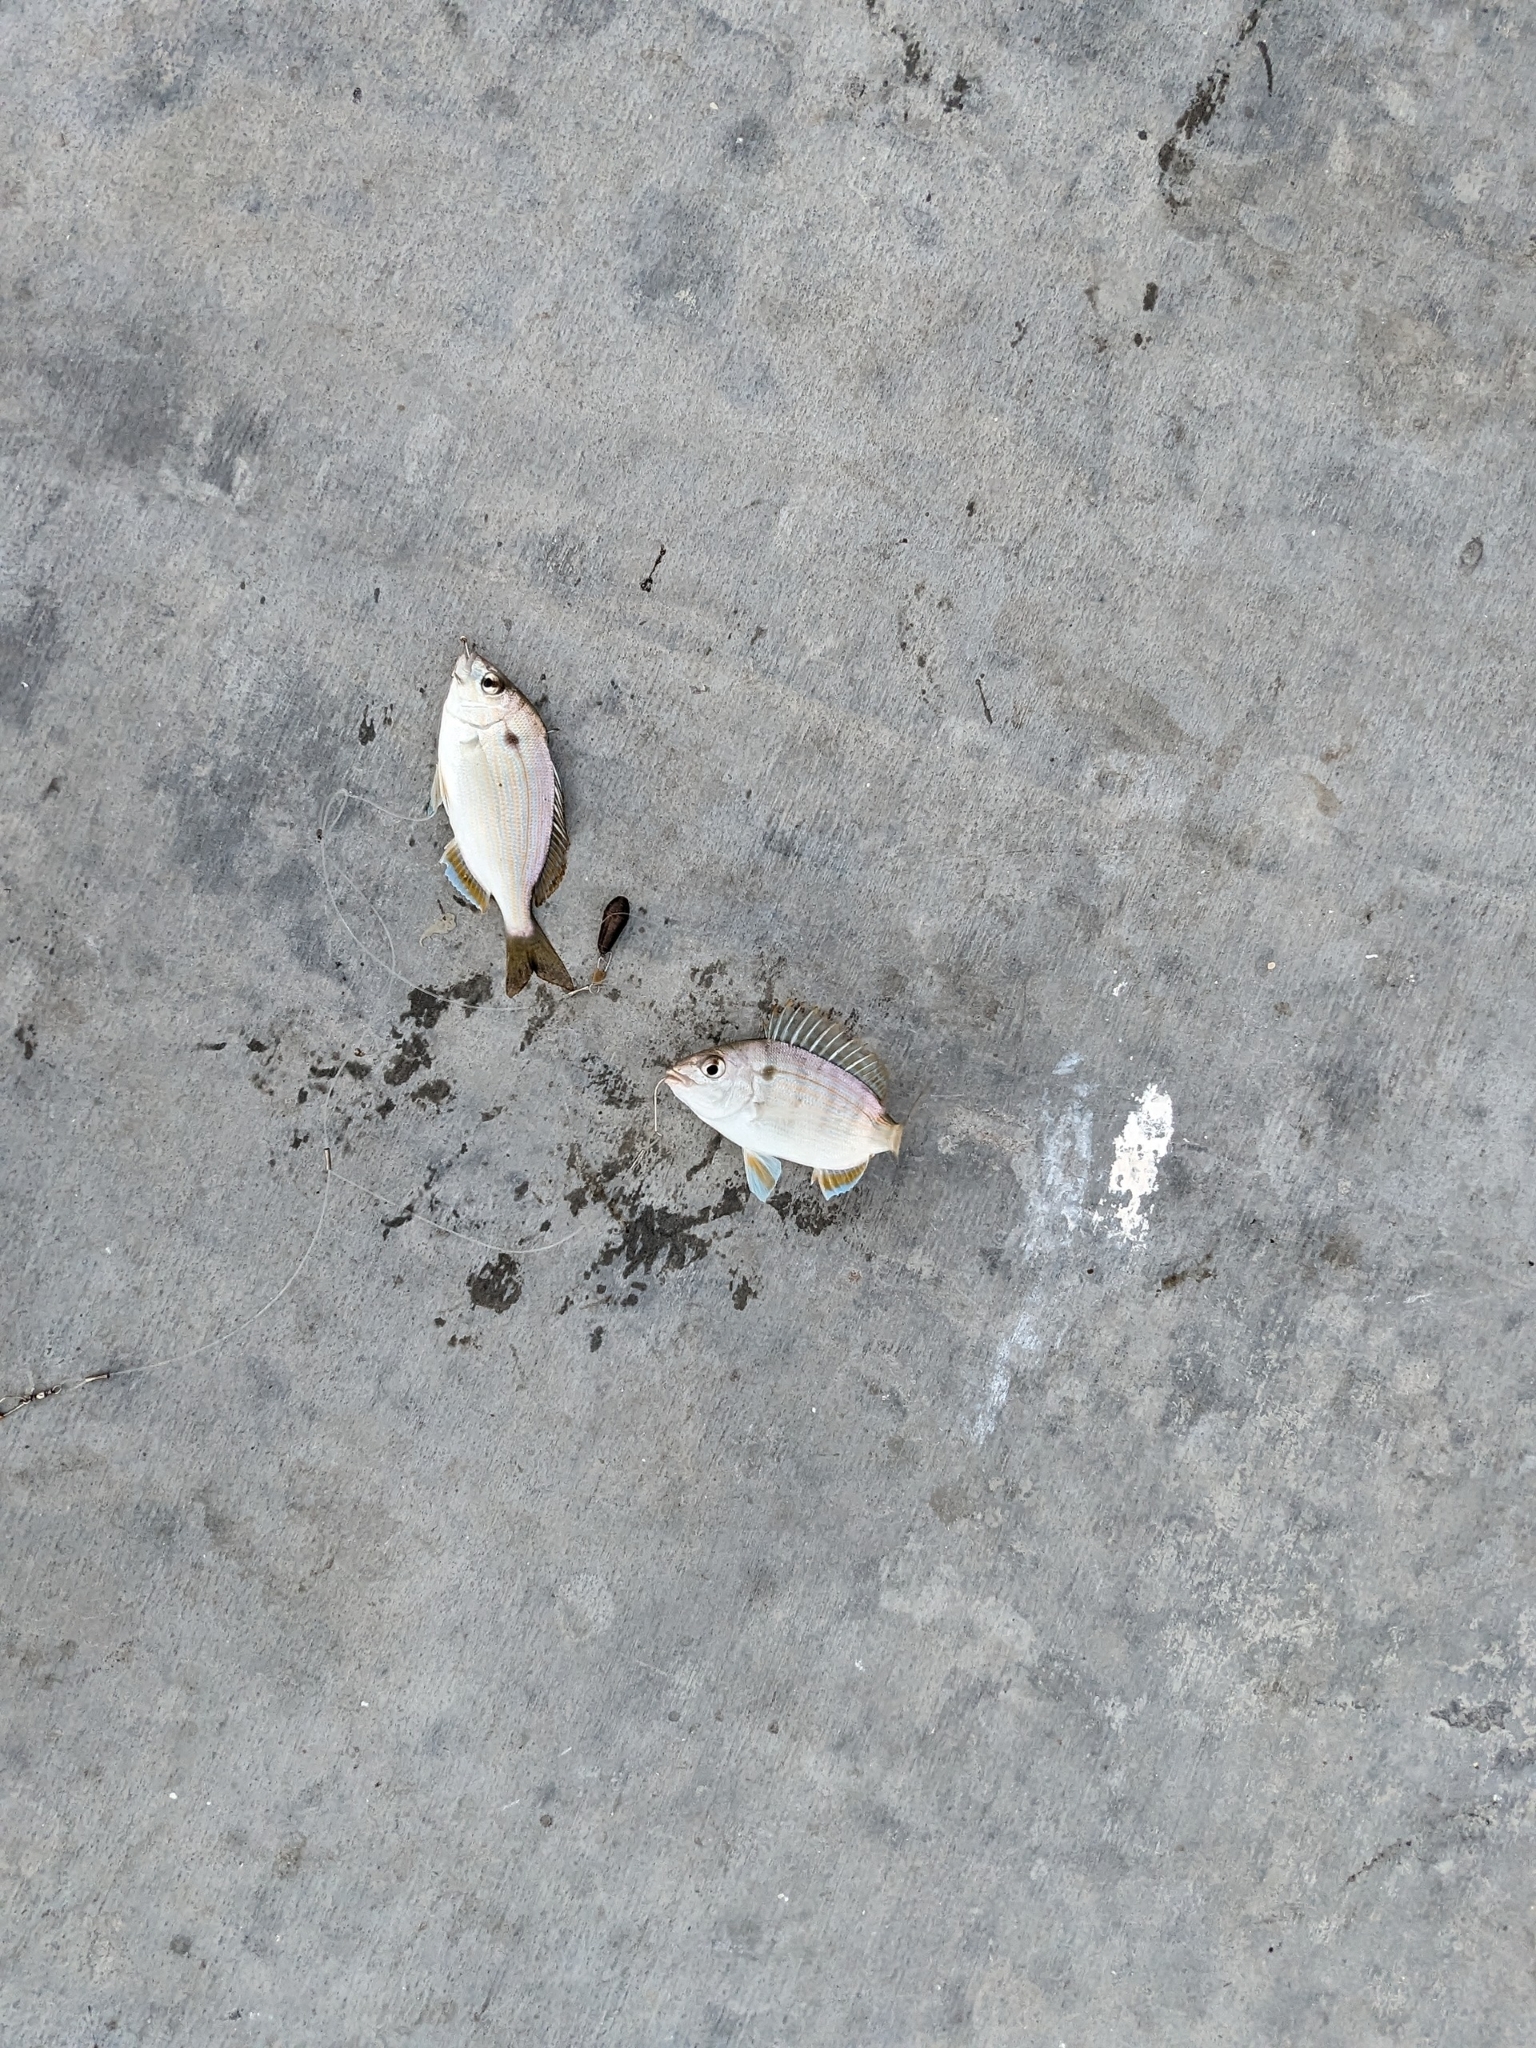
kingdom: Animalia
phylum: Chordata
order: Perciformes
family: Sparidae
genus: Lagodon
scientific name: Lagodon rhomboides
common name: Pinfish
